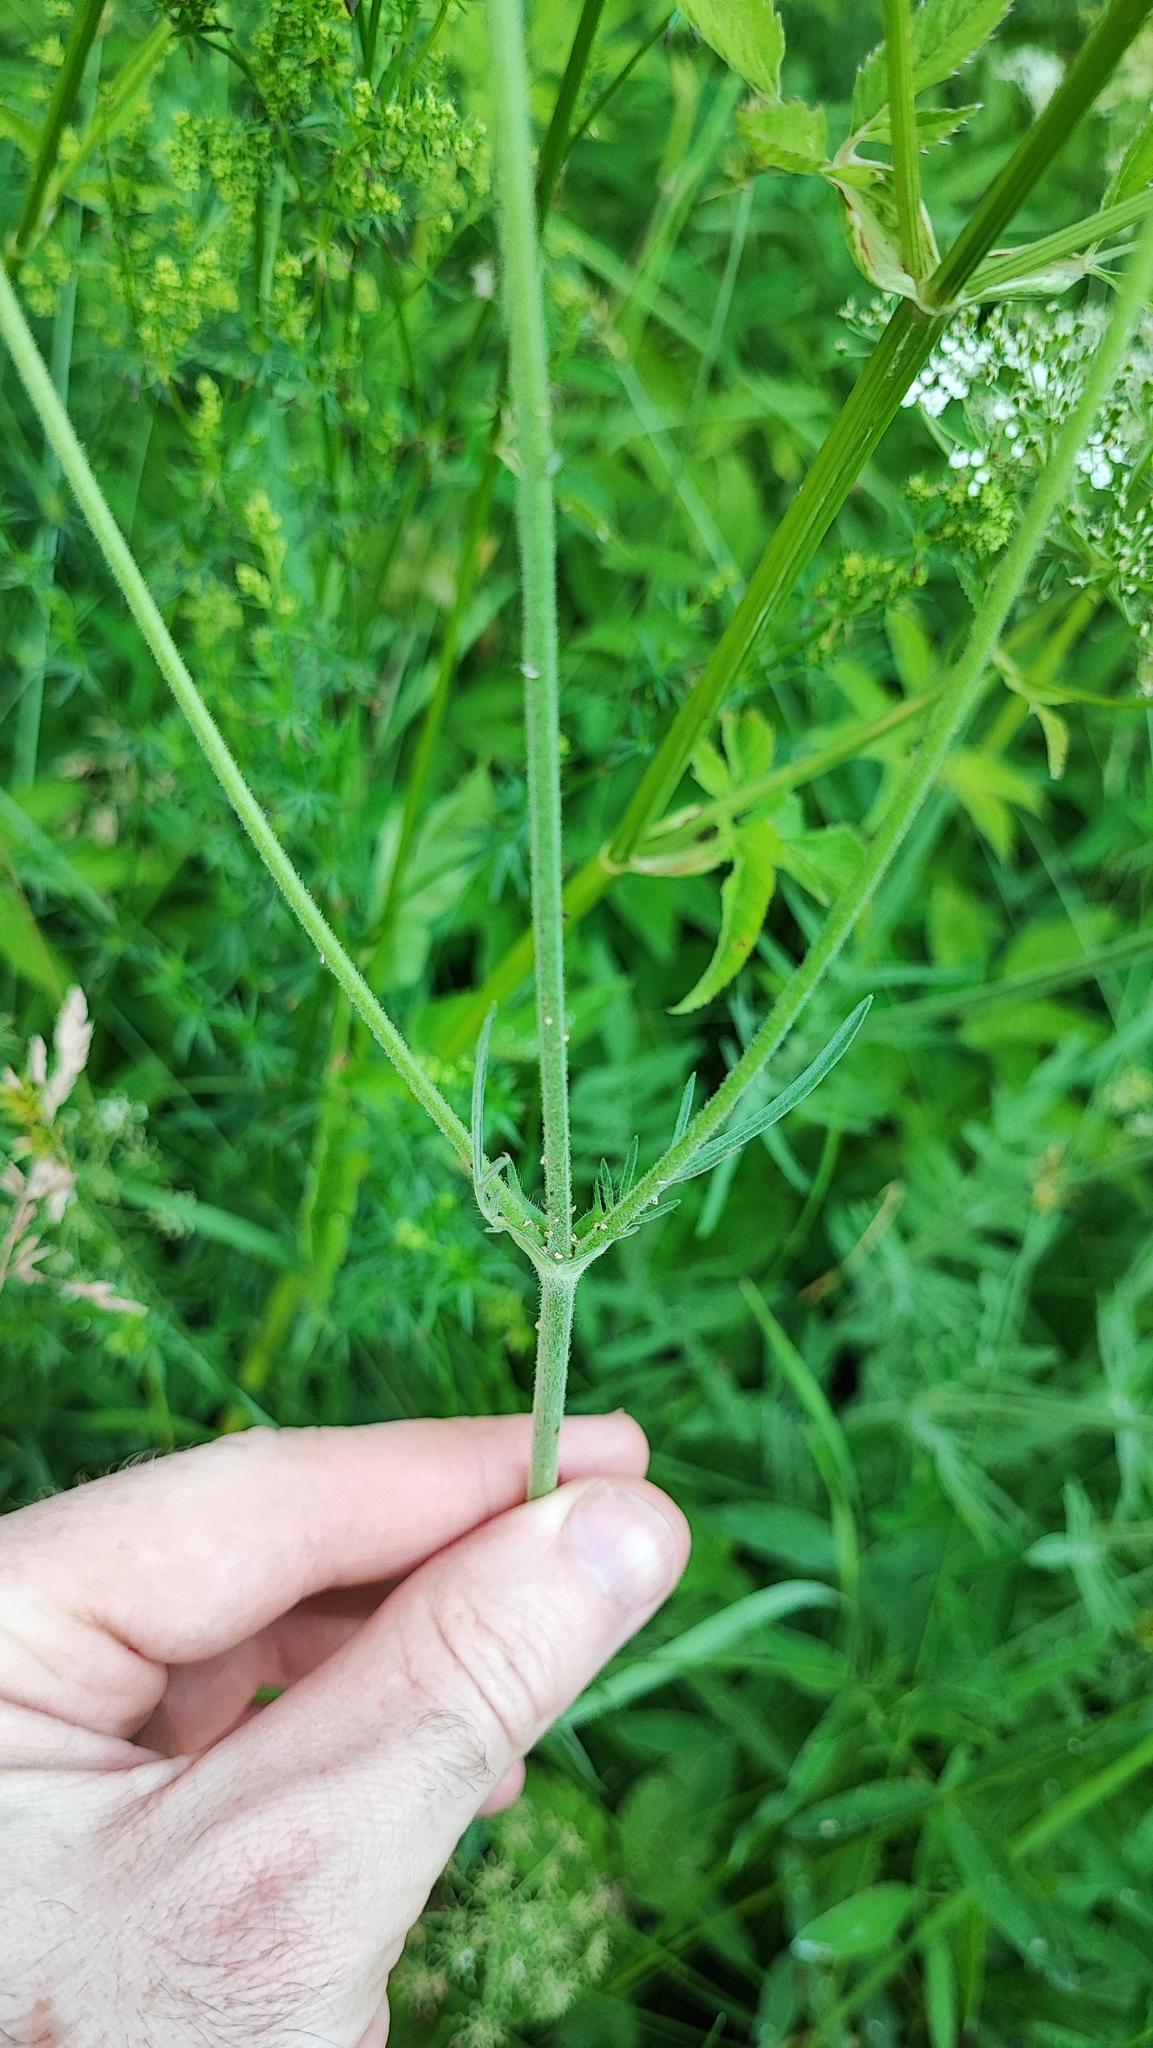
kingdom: Plantae
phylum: Tracheophyta
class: Magnoliopsida
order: Dipsacales
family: Caprifoliaceae
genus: Knautia
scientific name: Knautia arvensis
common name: Field scabiosa
